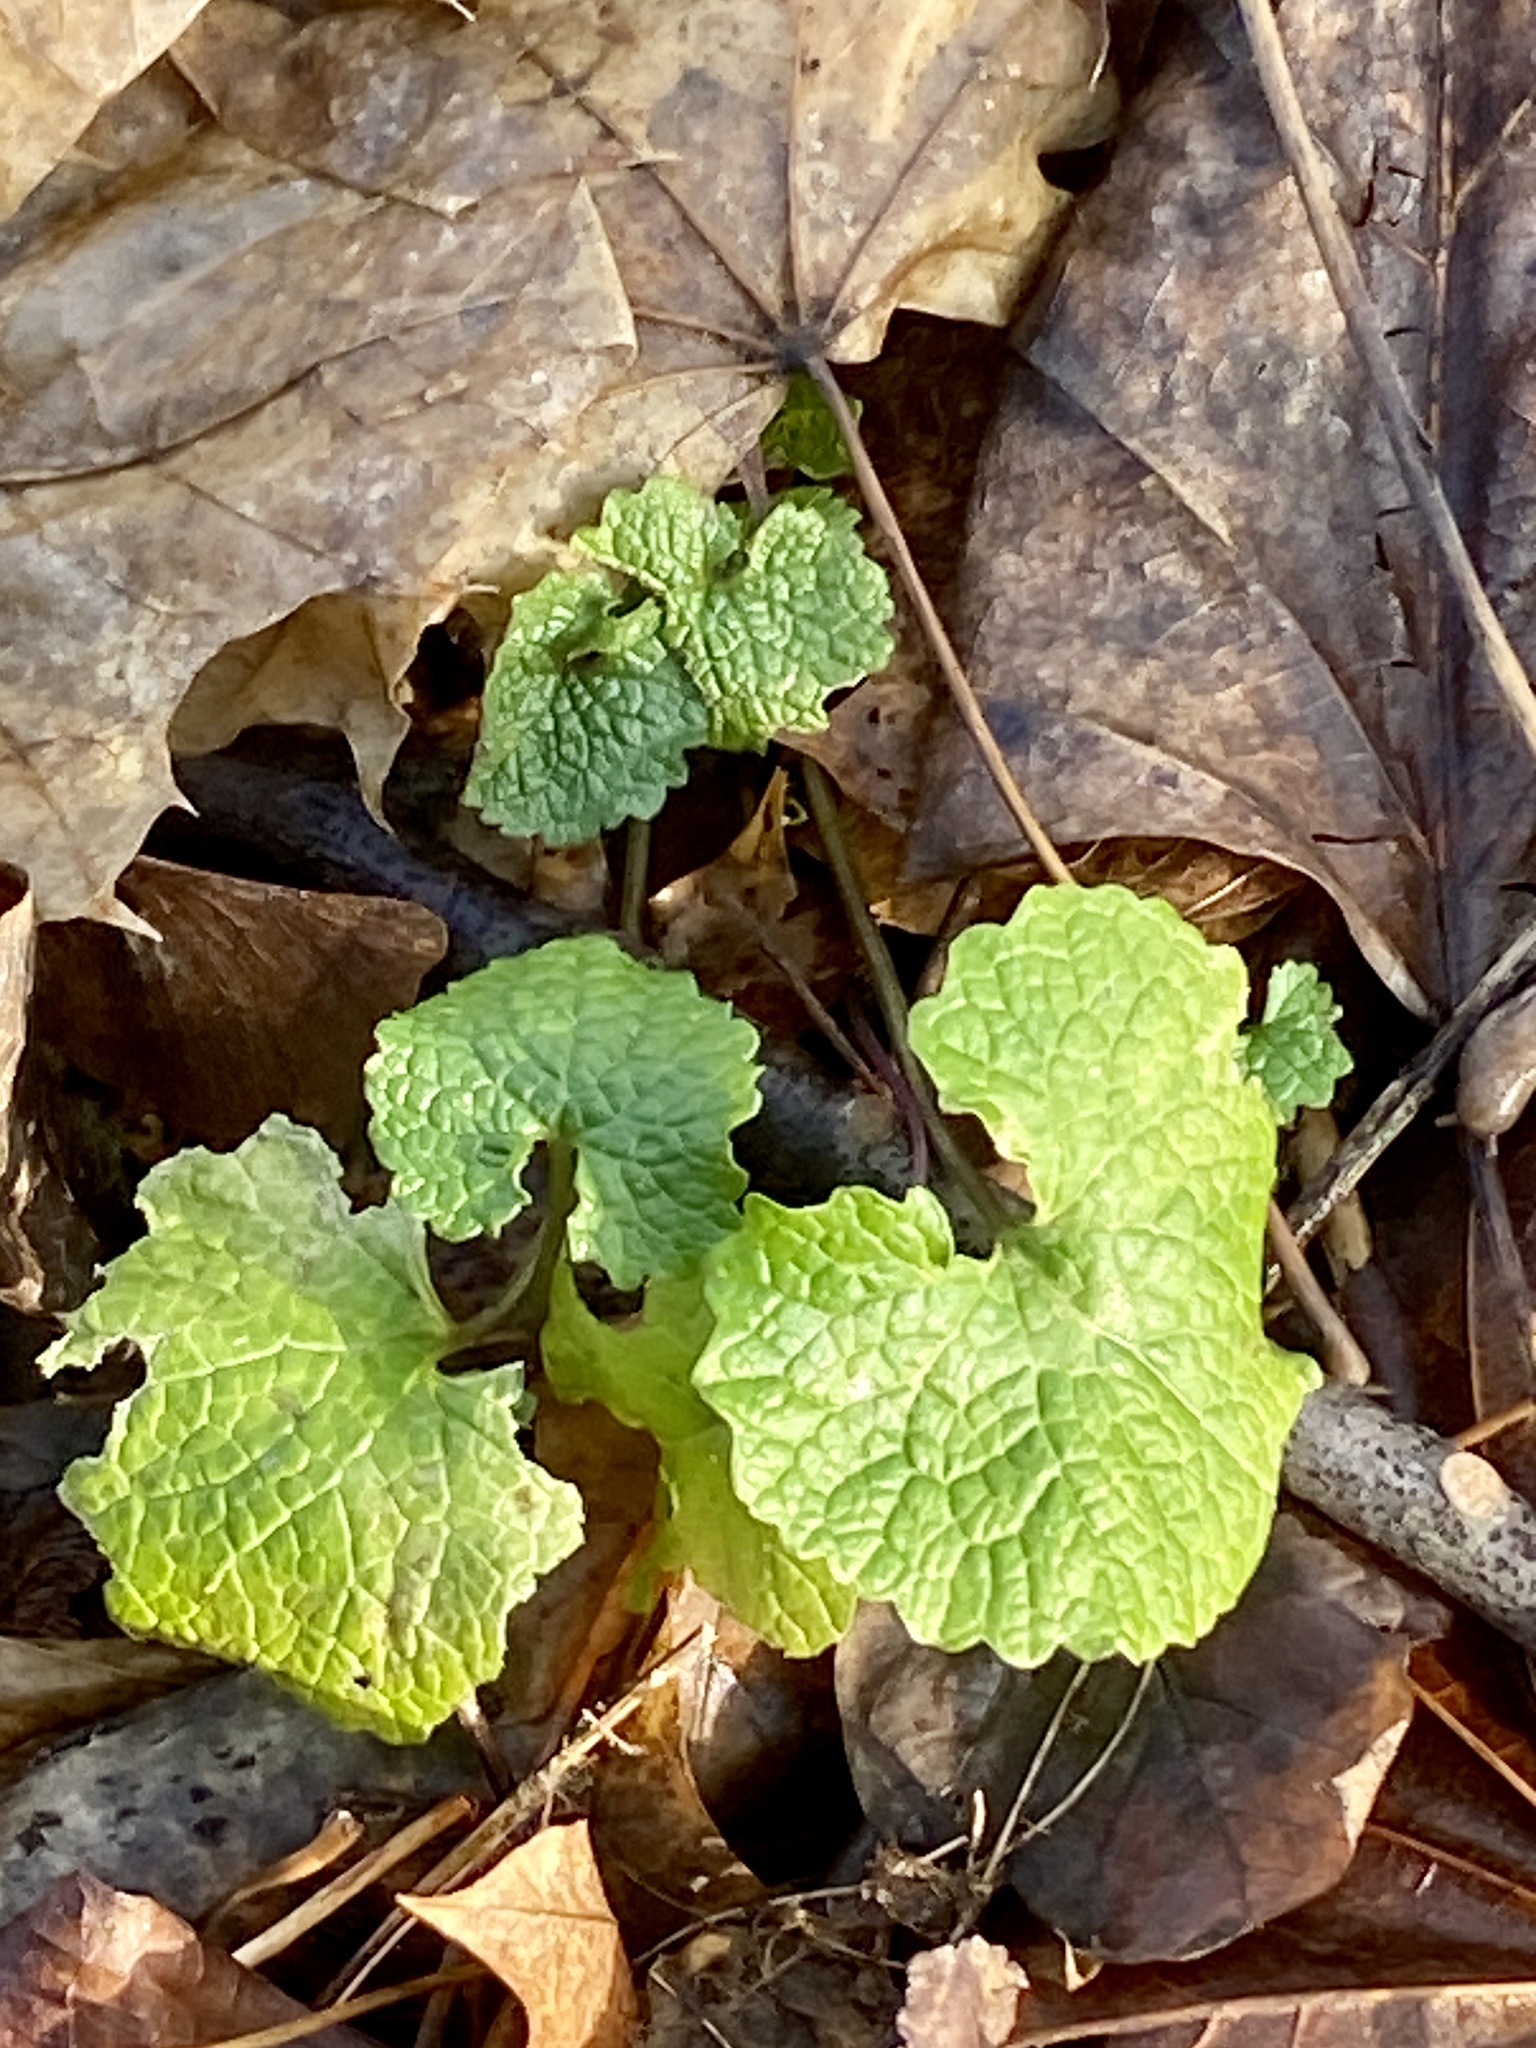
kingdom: Plantae
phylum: Tracheophyta
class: Magnoliopsida
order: Brassicales
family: Brassicaceae
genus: Alliaria
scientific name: Alliaria petiolata
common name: Garlic mustard
